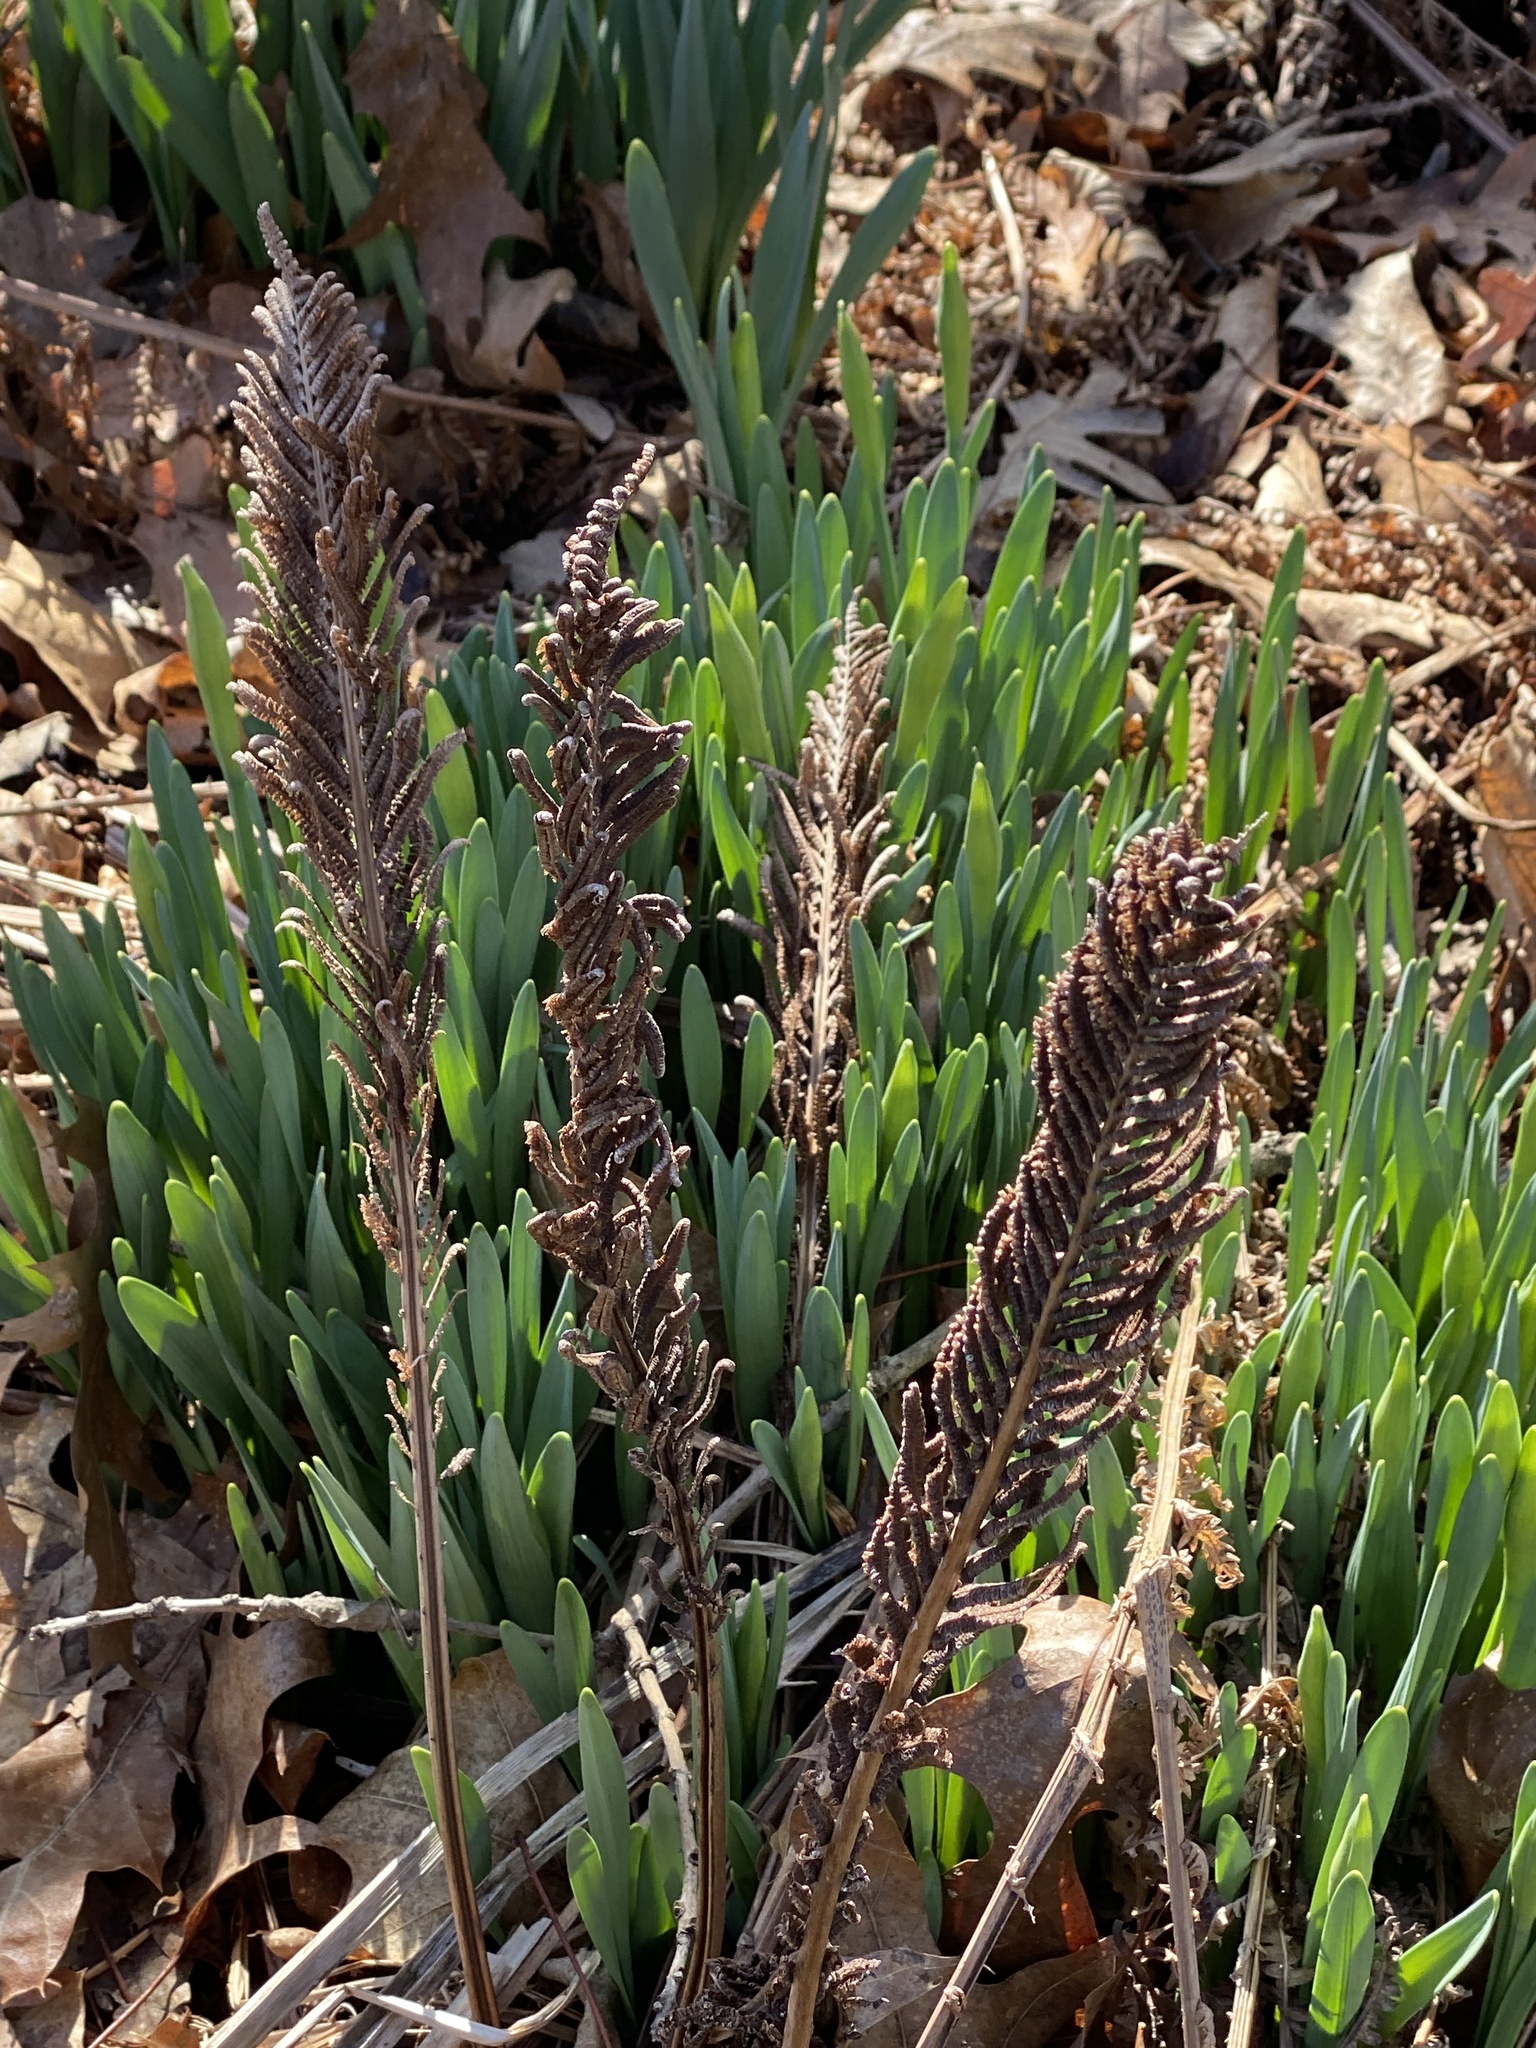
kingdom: Plantae
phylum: Tracheophyta
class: Polypodiopsida
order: Polypodiales
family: Onocleaceae
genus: Matteuccia
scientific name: Matteuccia struthiopteris
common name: Ostrich fern
